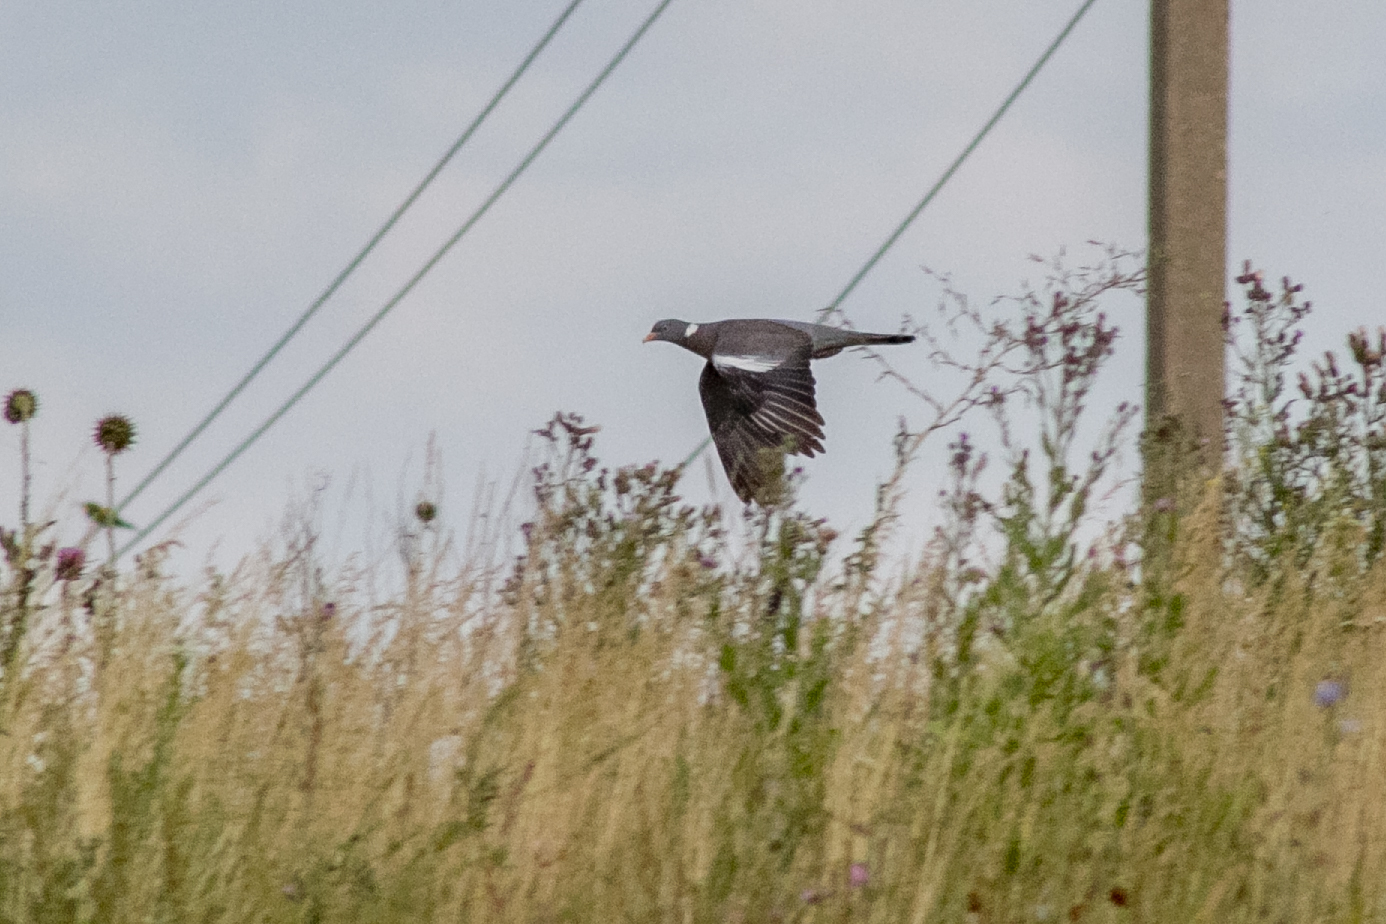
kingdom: Animalia
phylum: Chordata
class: Aves
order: Columbiformes
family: Columbidae
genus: Columba
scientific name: Columba palumbus
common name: Common wood pigeon
